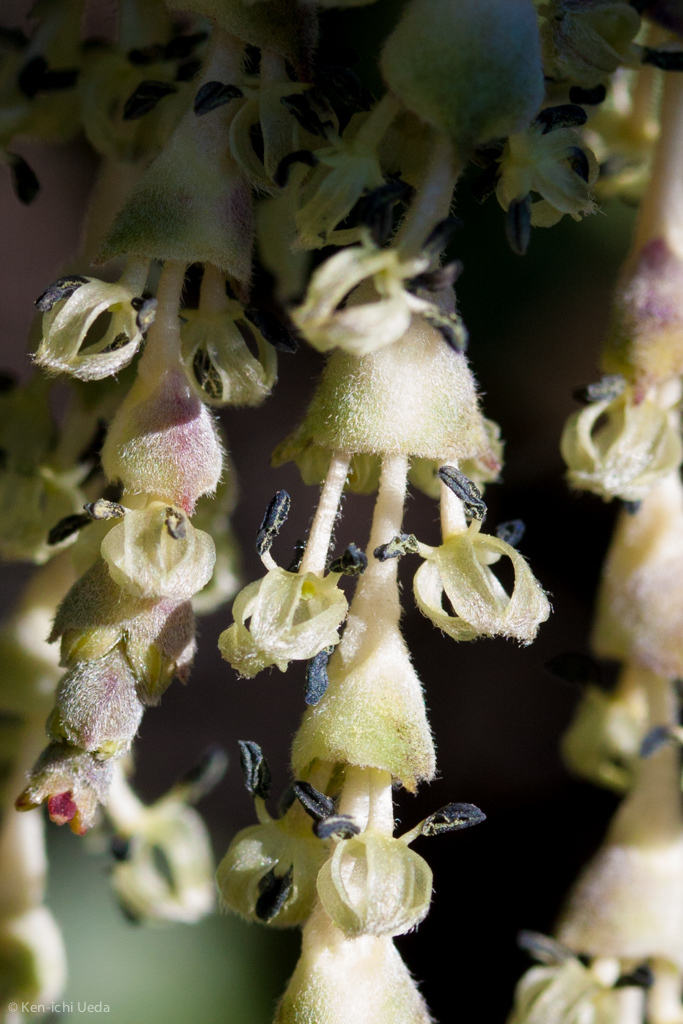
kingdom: Plantae
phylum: Tracheophyta
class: Magnoliopsida
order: Garryales
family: Garryaceae
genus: Garrya
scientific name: Garrya elliptica
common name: Silk-tassel
